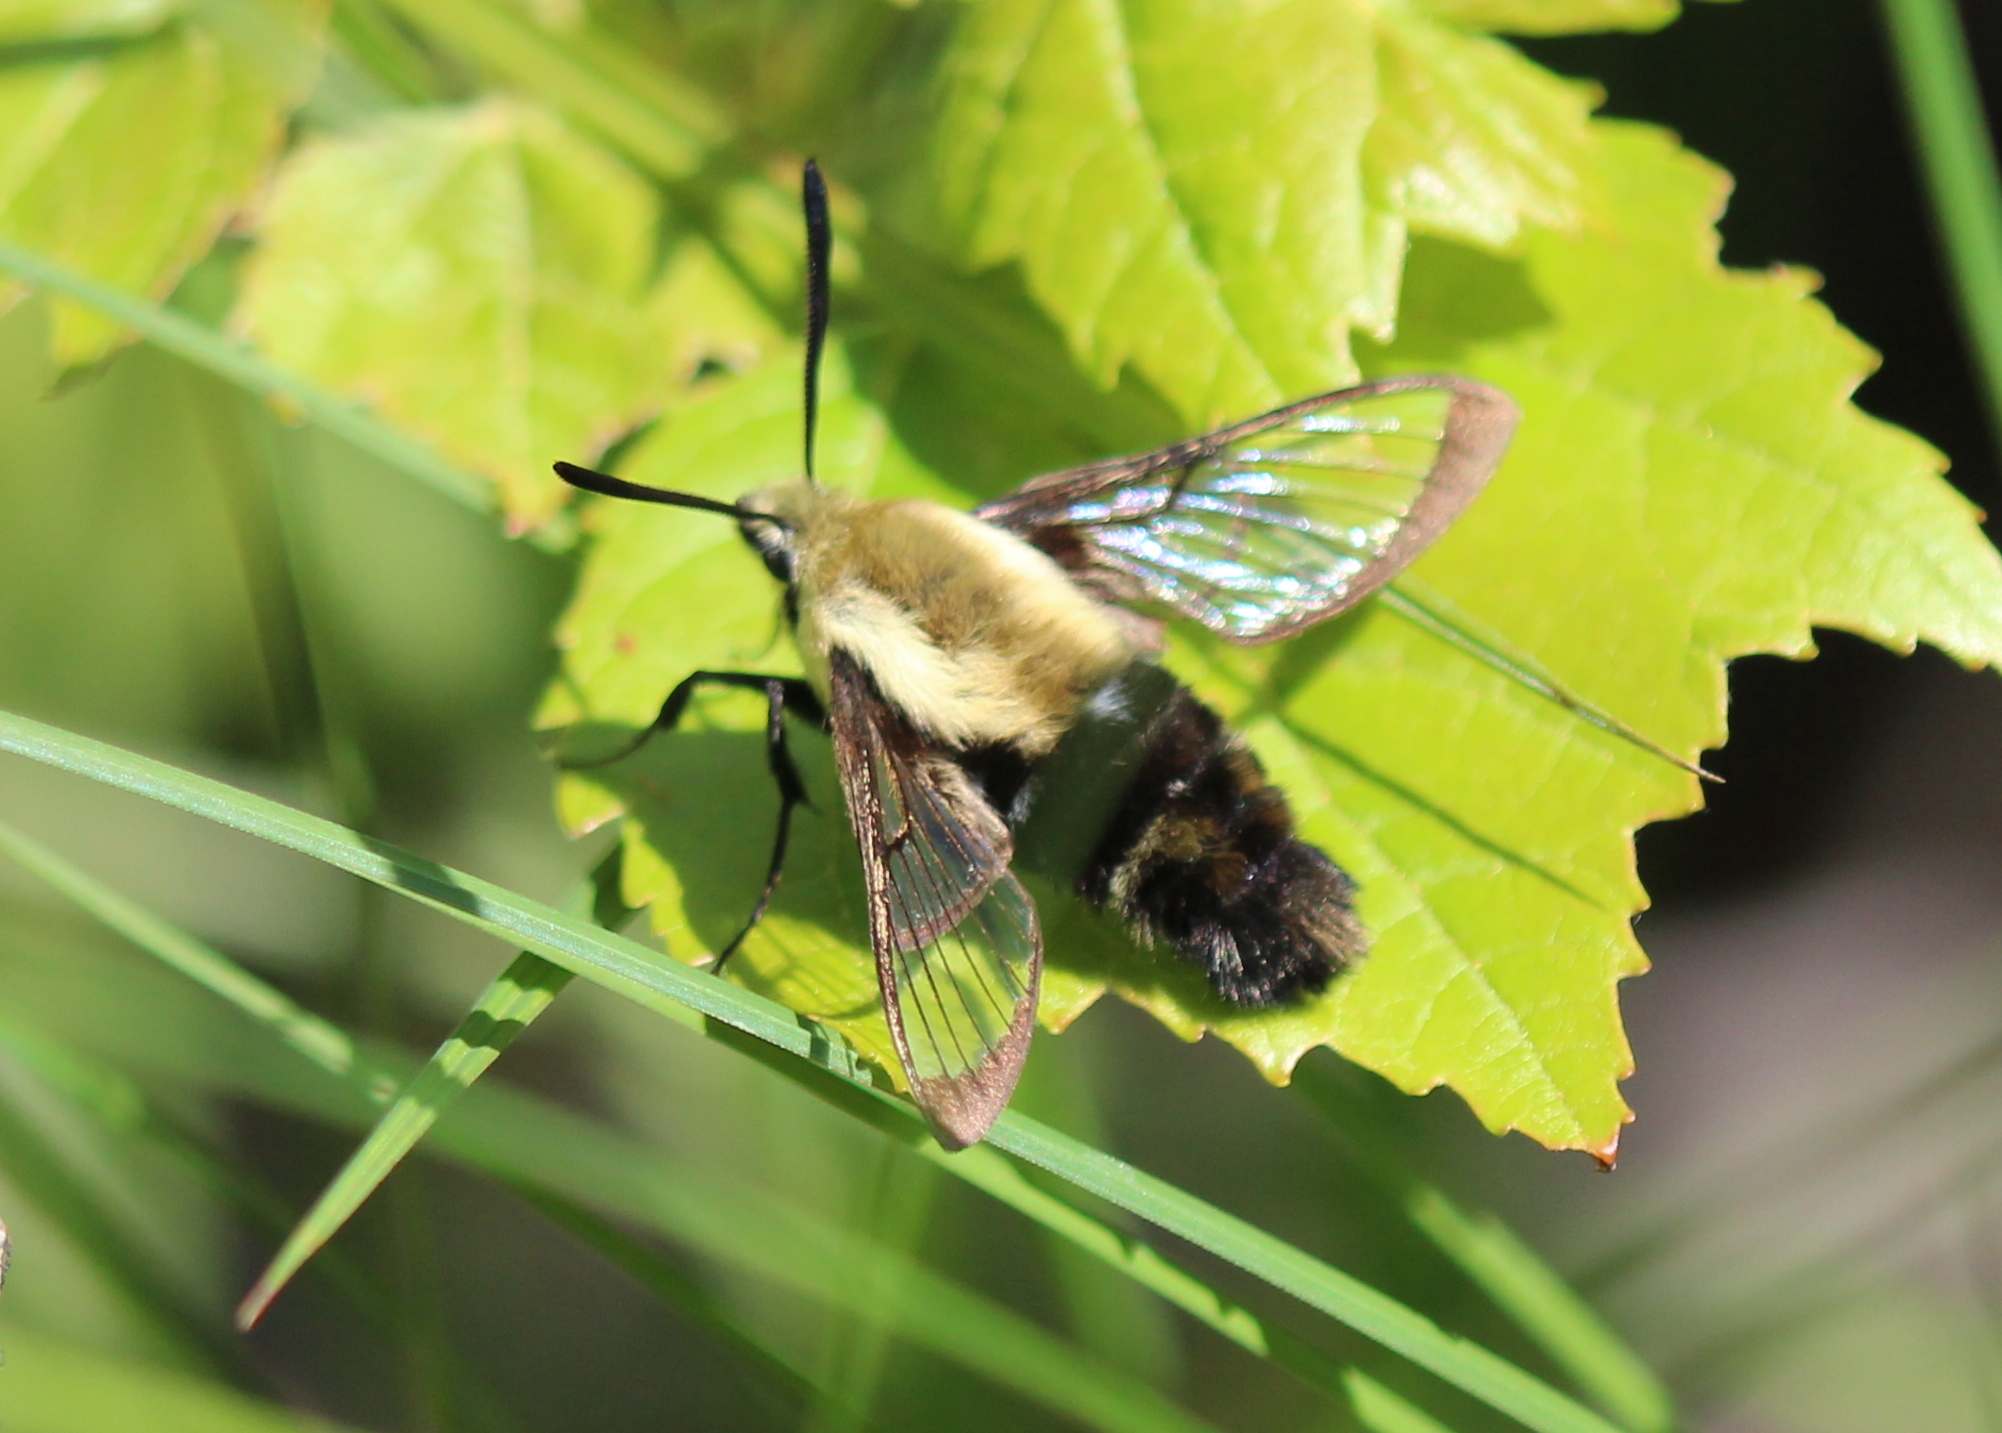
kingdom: Animalia
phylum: Arthropoda
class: Insecta
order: Lepidoptera
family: Sphingidae
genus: Hemaris
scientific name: Hemaris diffinis
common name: Bumblebee moth
